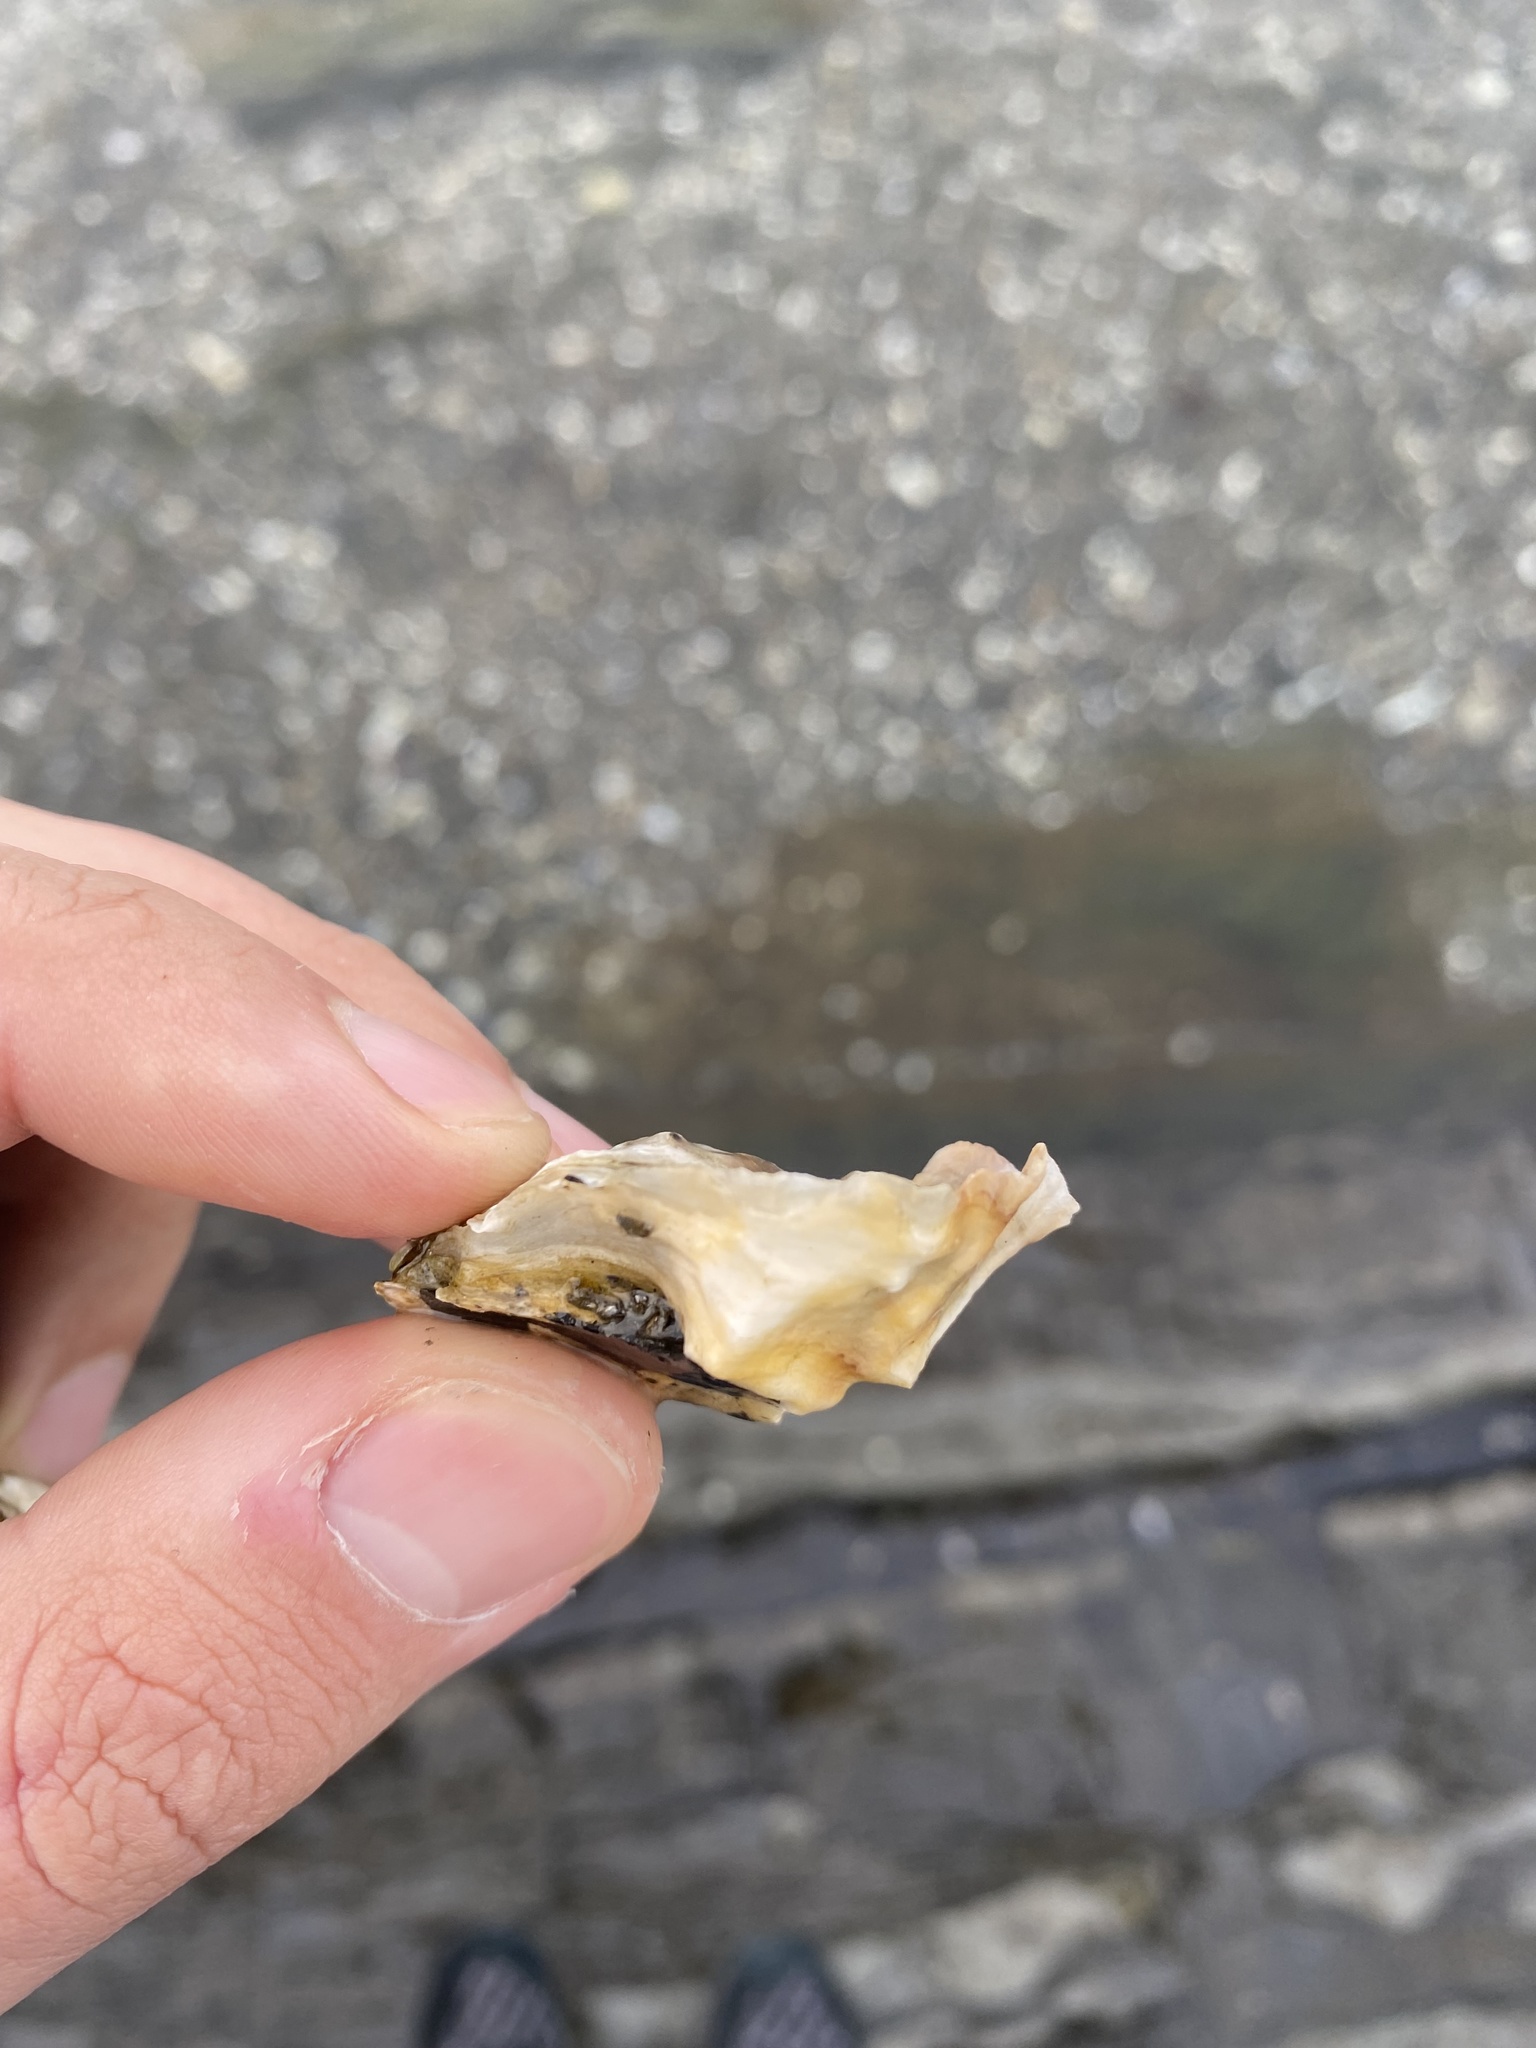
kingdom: Animalia
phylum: Mollusca
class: Bivalvia
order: Ostreida
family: Ostreidae
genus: Ostrea
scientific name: Ostrea edulis
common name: Flat oyster
